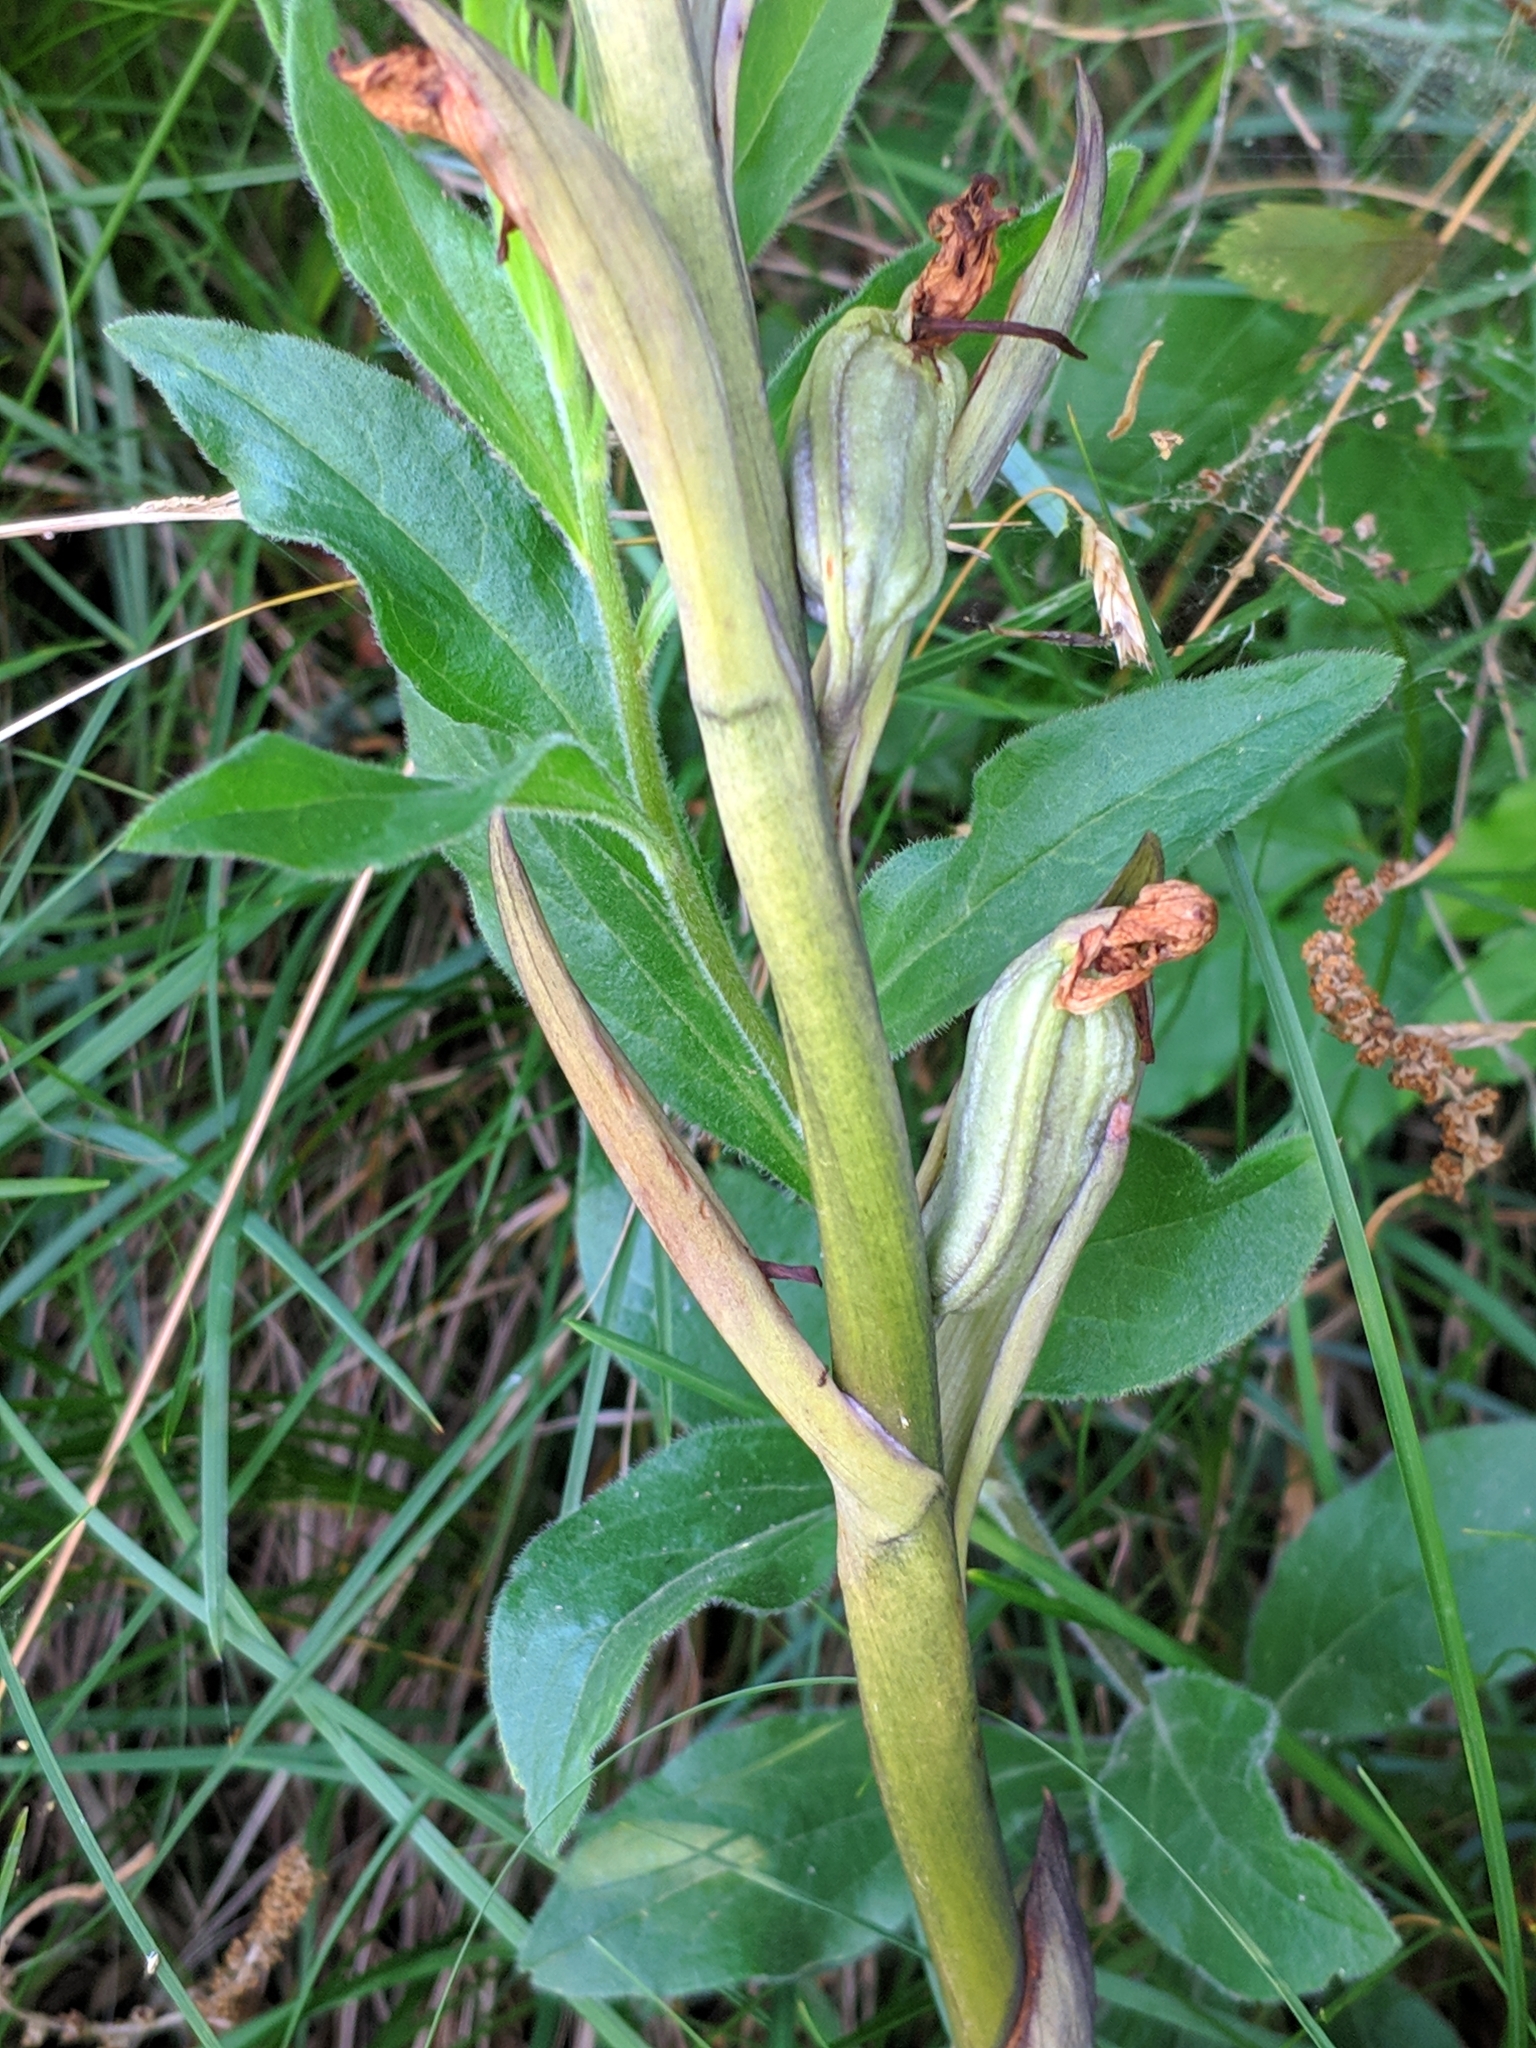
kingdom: Plantae
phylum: Tracheophyta
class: Liliopsida
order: Asparagales
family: Orchidaceae
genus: Limodorum
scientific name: Limodorum abortivum
